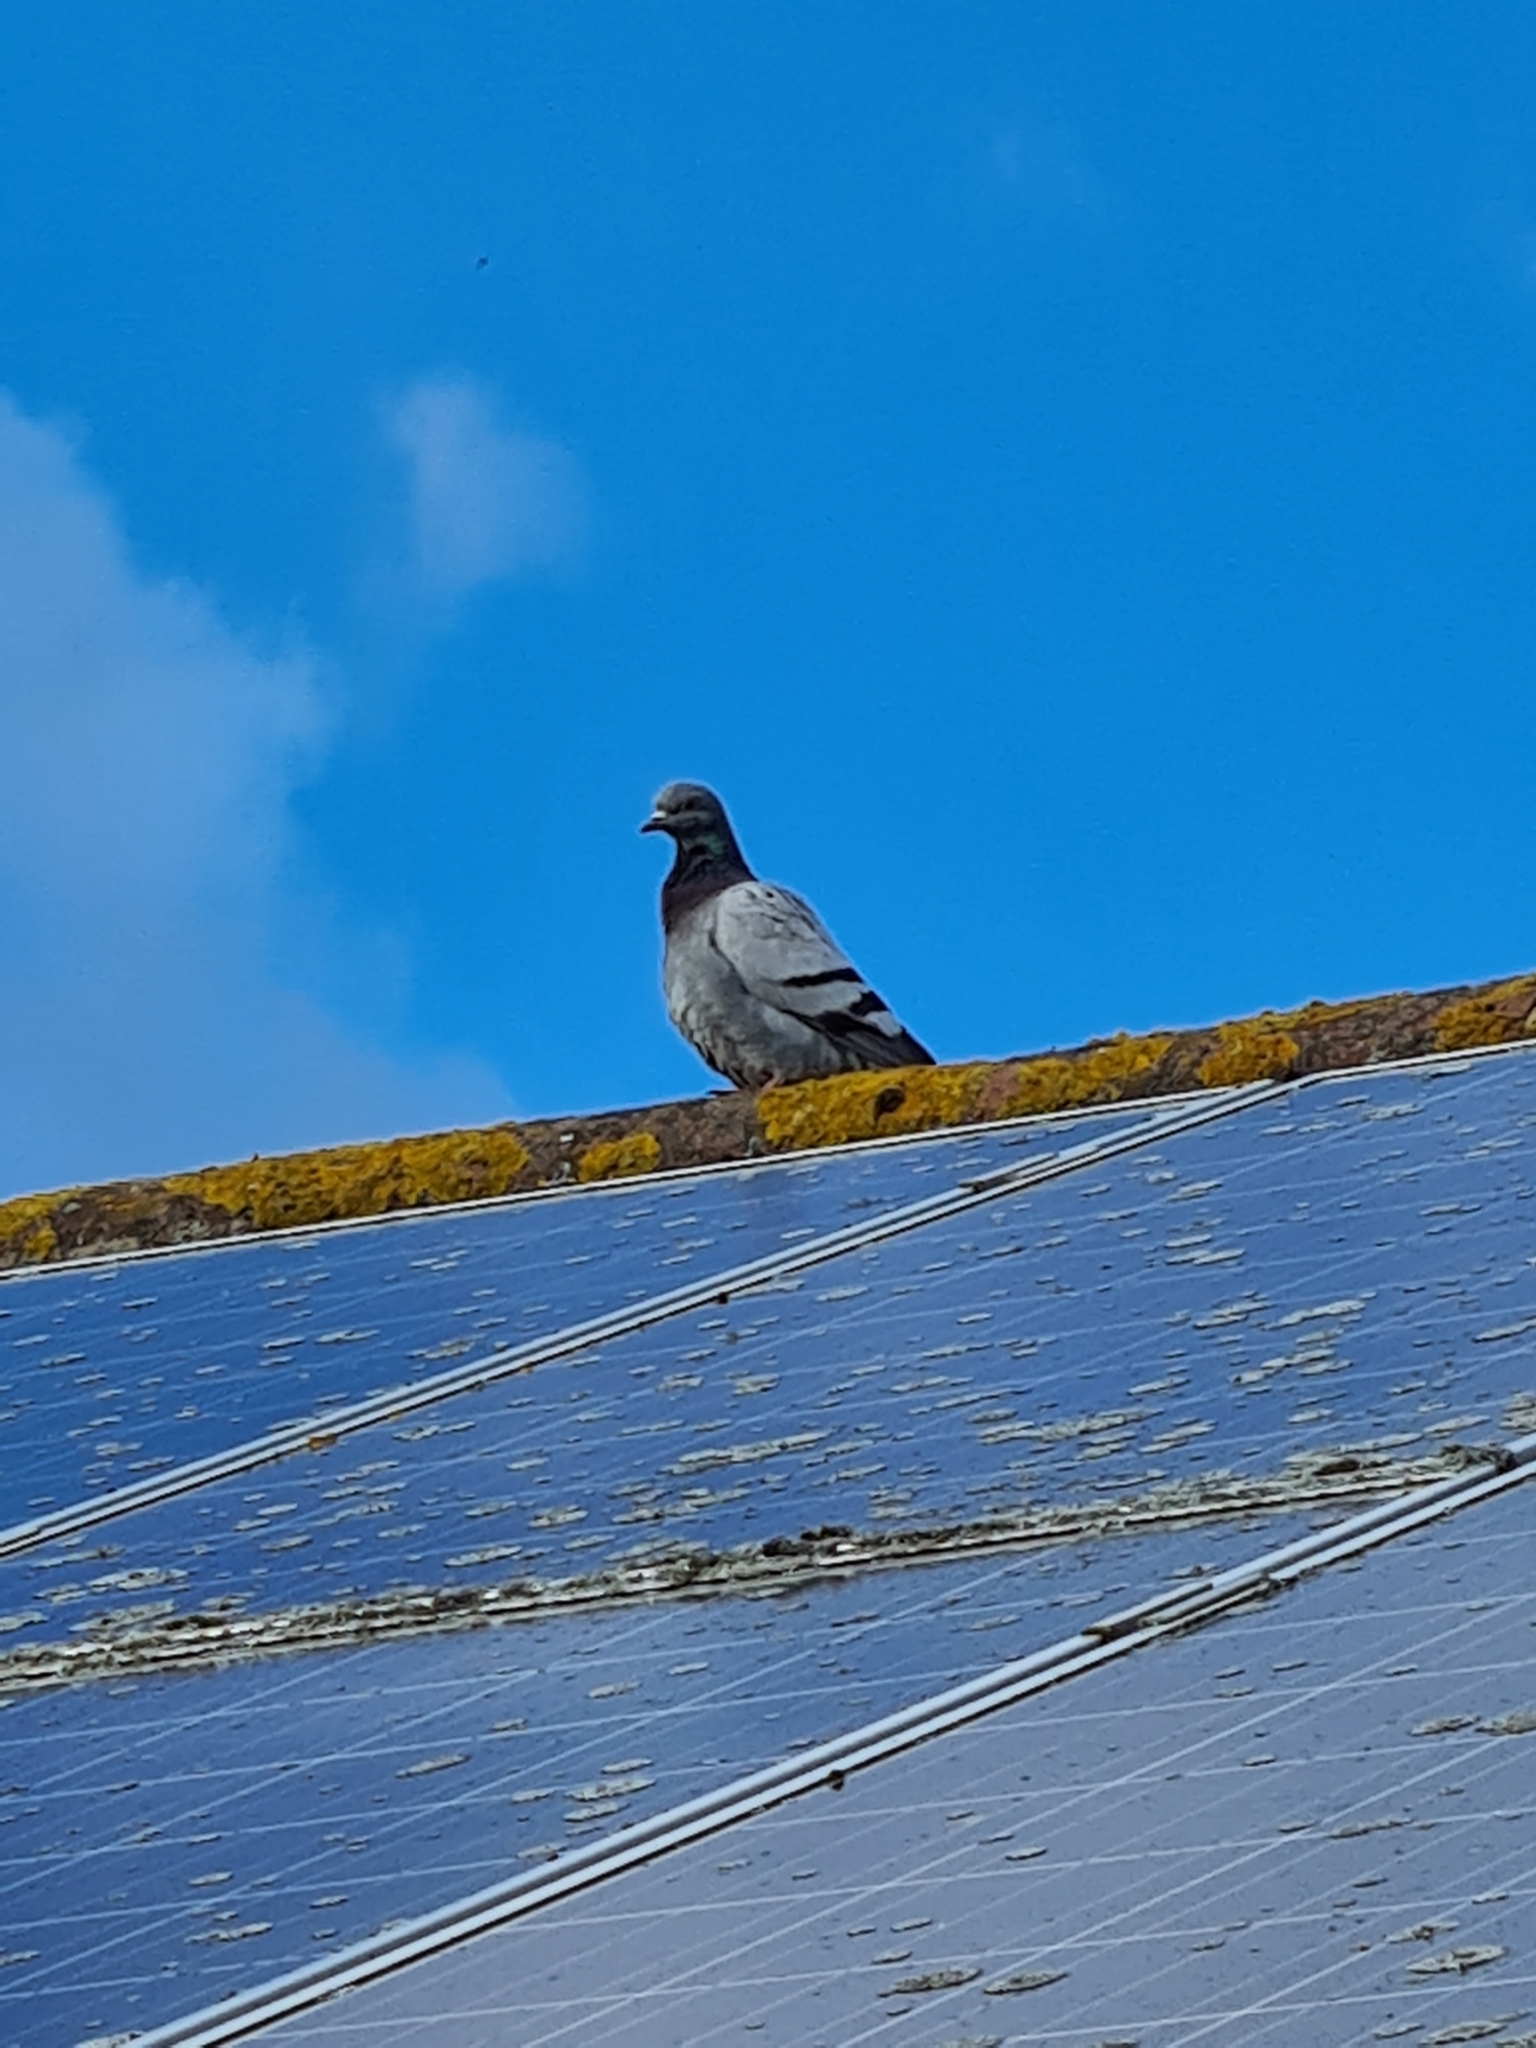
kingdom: Animalia
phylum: Chordata
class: Aves
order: Columbiformes
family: Columbidae
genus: Columba
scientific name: Columba livia
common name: Rock pigeon
